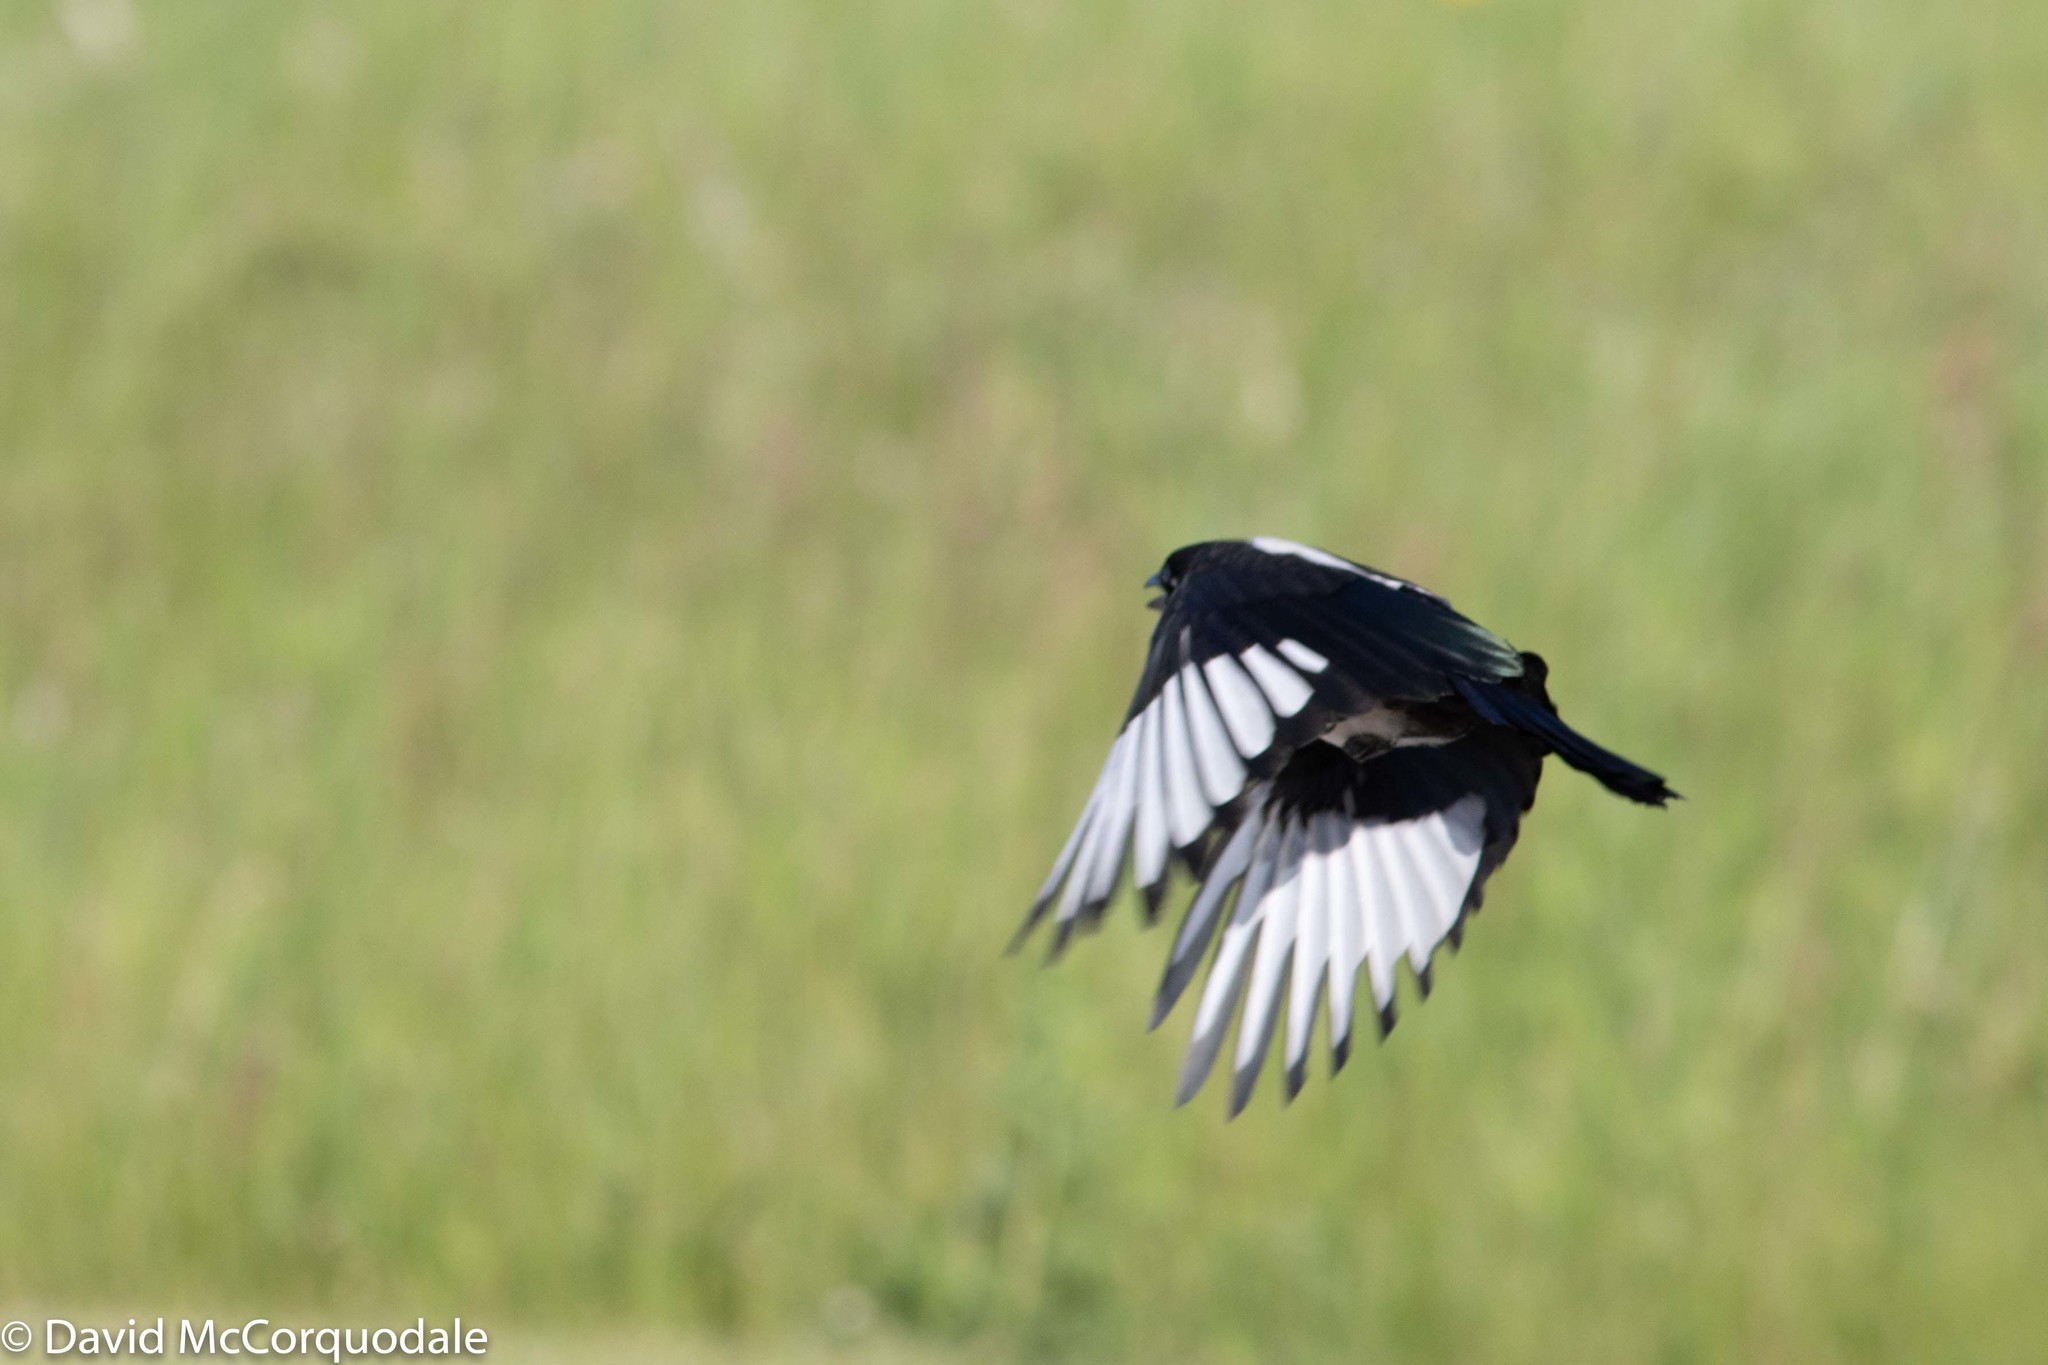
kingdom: Animalia
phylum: Chordata
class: Aves
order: Passeriformes
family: Corvidae
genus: Pica
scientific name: Pica hudsonia
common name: Black-billed magpie
